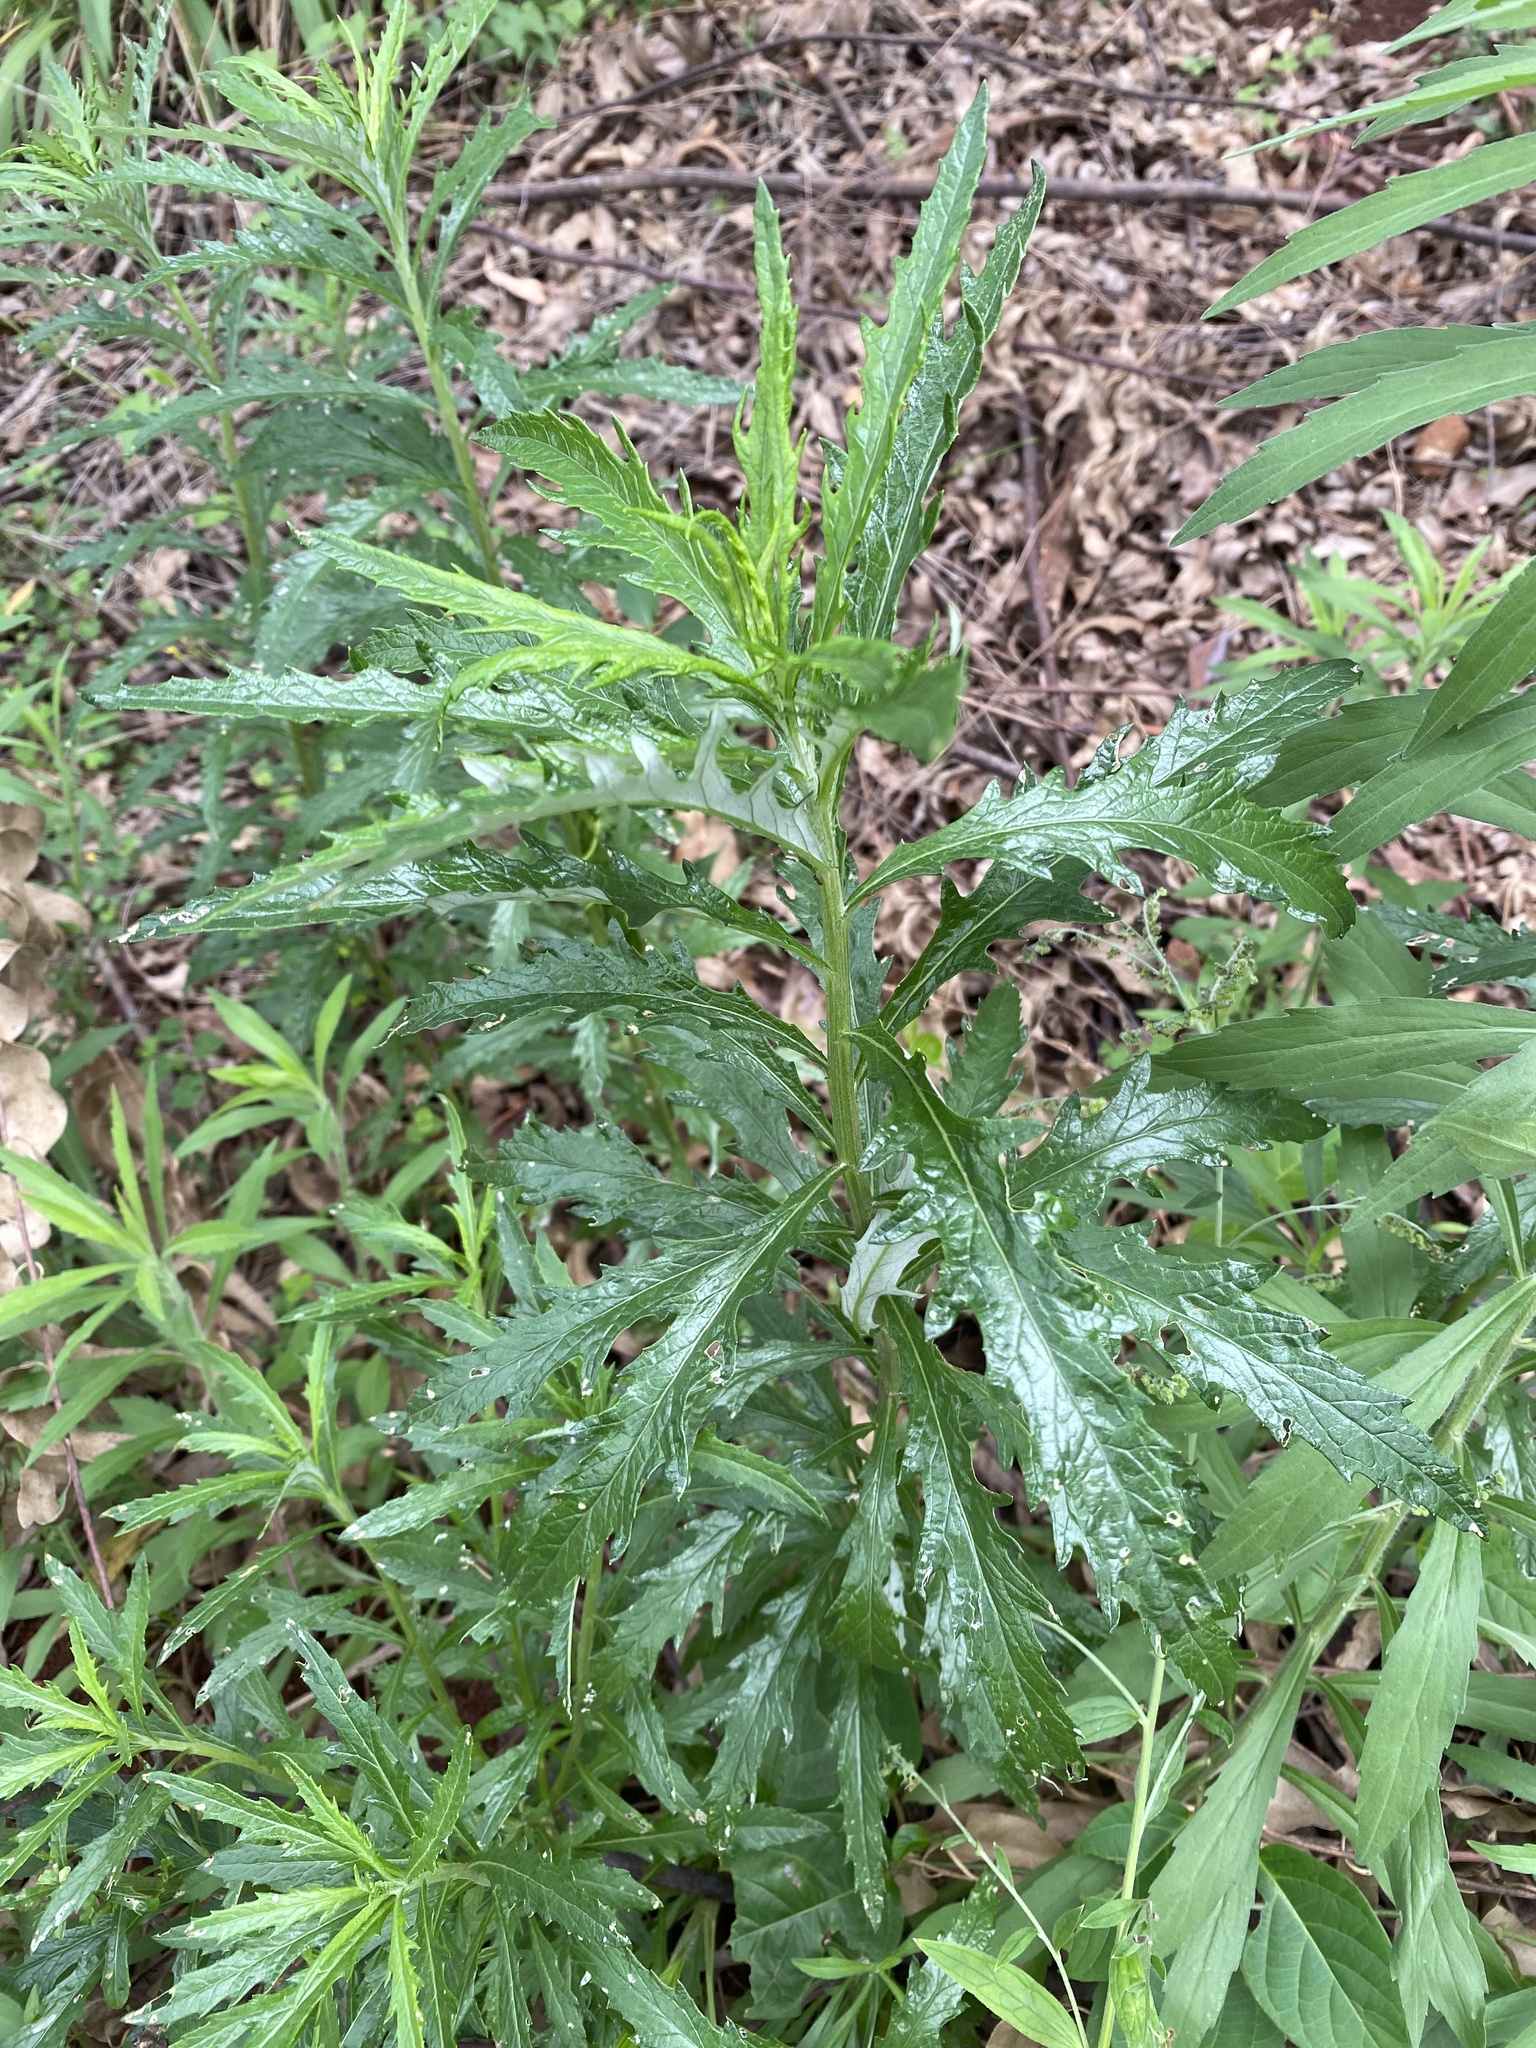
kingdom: Plantae
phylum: Tracheophyta
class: Magnoliopsida
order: Asterales
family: Asteraceae
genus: Senecio
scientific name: Senecio polyanthemoides
